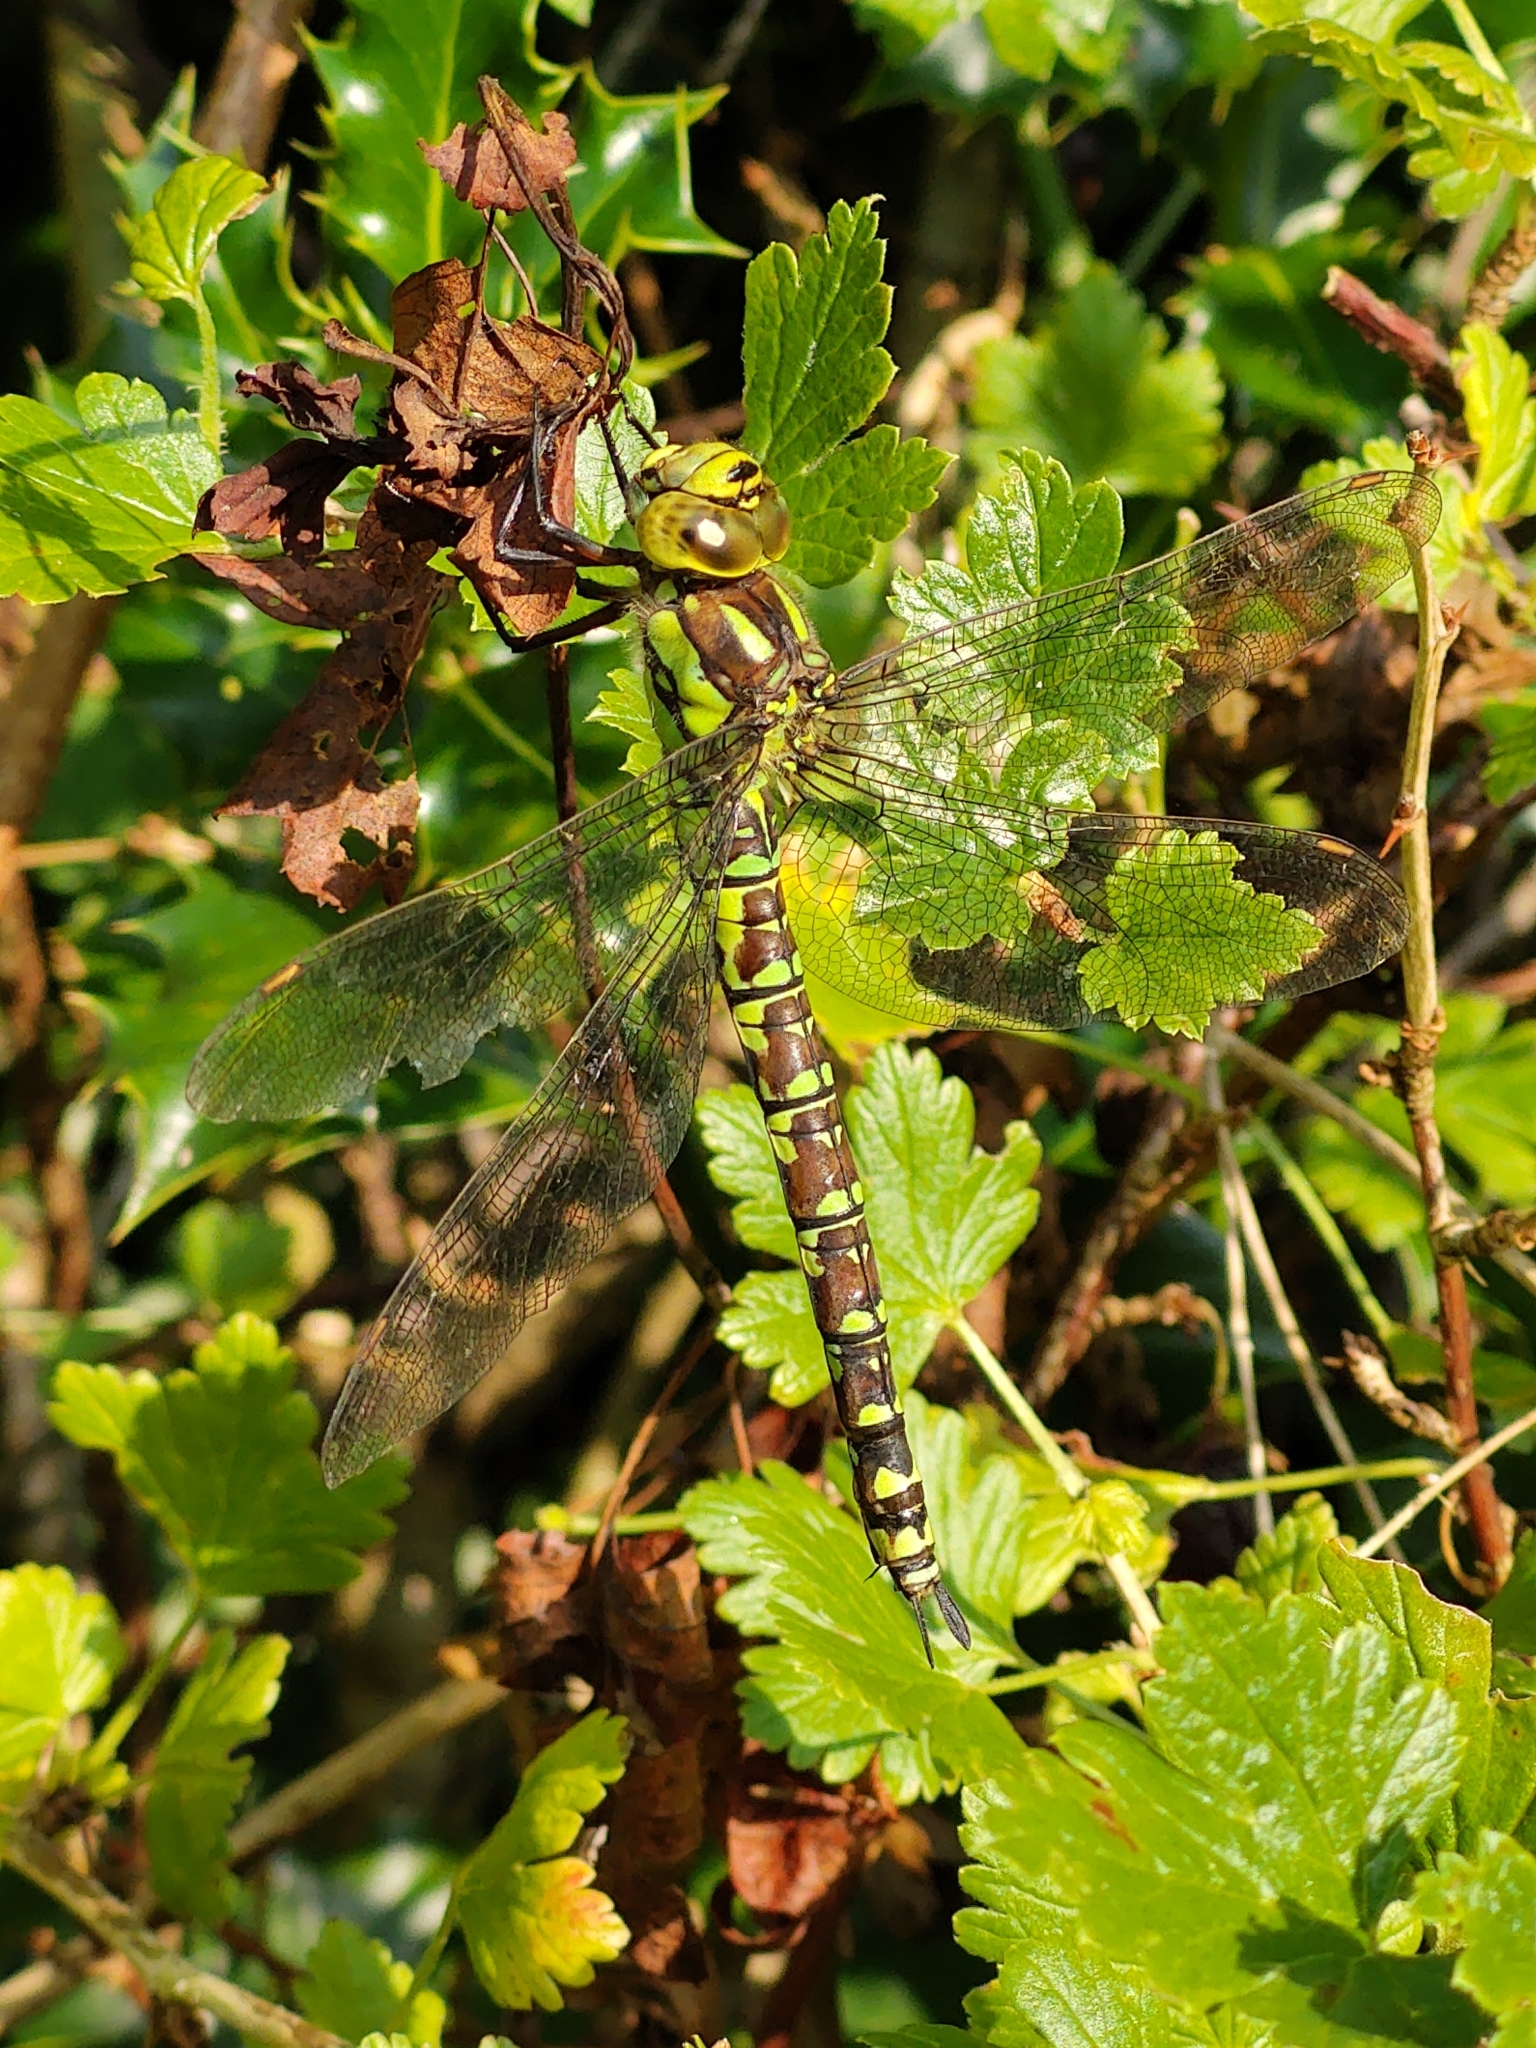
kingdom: Animalia
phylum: Arthropoda
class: Insecta
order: Odonata
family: Aeshnidae
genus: Aeshna
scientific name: Aeshna cyanea
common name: Southern hawker
